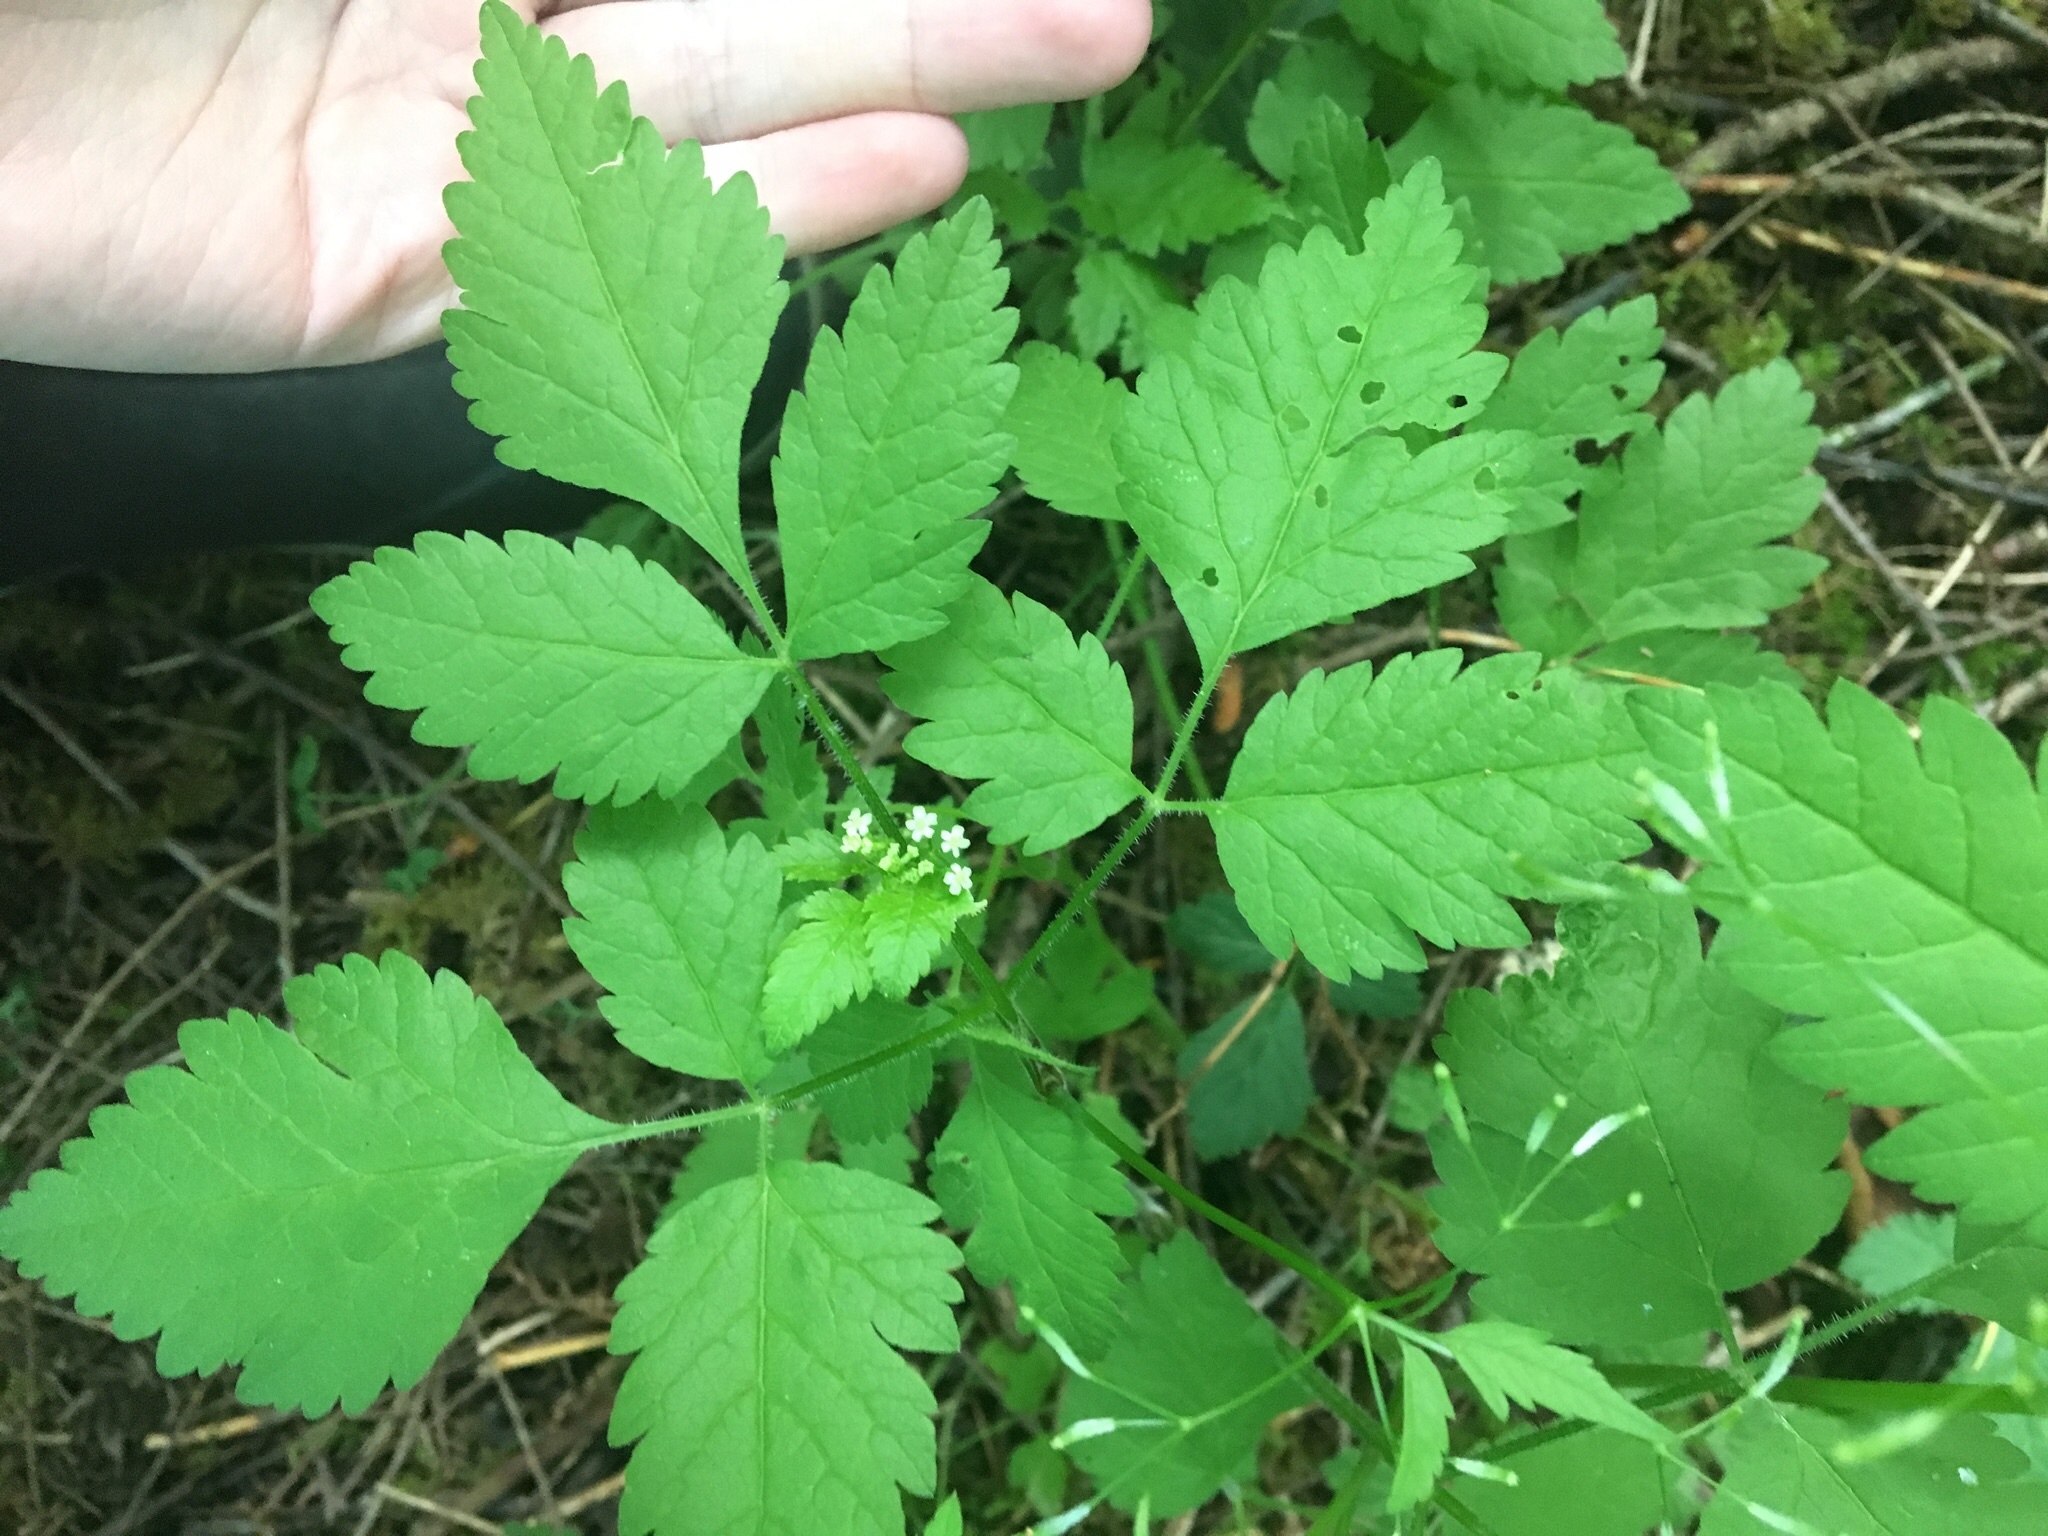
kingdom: Plantae
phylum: Tracheophyta
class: Magnoliopsida
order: Apiales
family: Apiaceae
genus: Osmorhiza
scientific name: Osmorhiza berteroi
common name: Mountain sweet cicely
